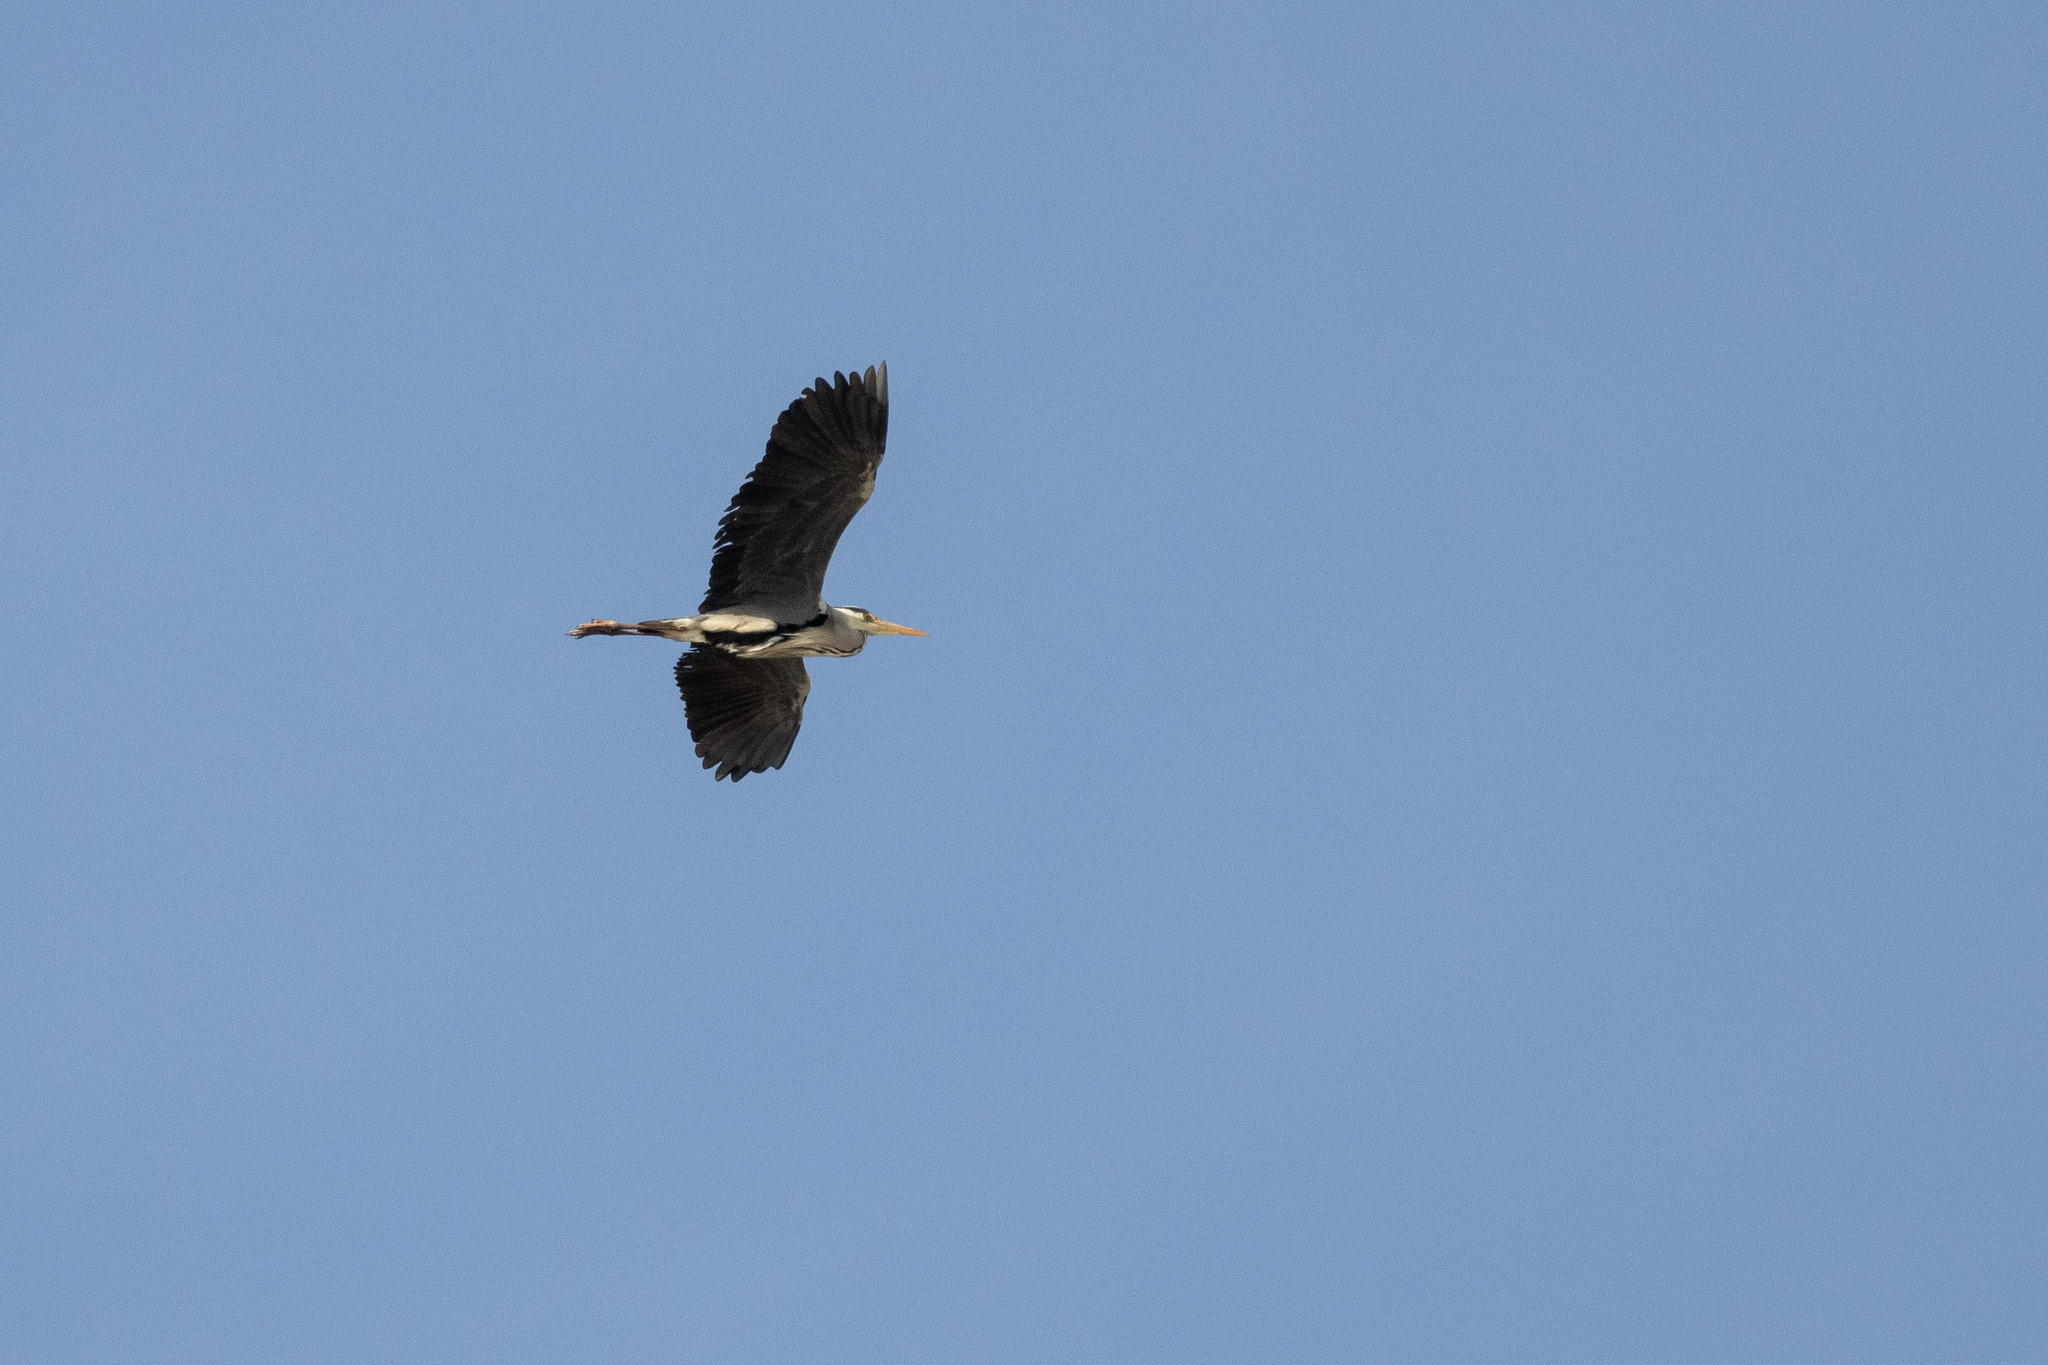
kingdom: Animalia
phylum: Chordata
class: Aves
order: Pelecaniformes
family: Ardeidae
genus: Ardea
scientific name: Ardea cinerea
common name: Grey heron
